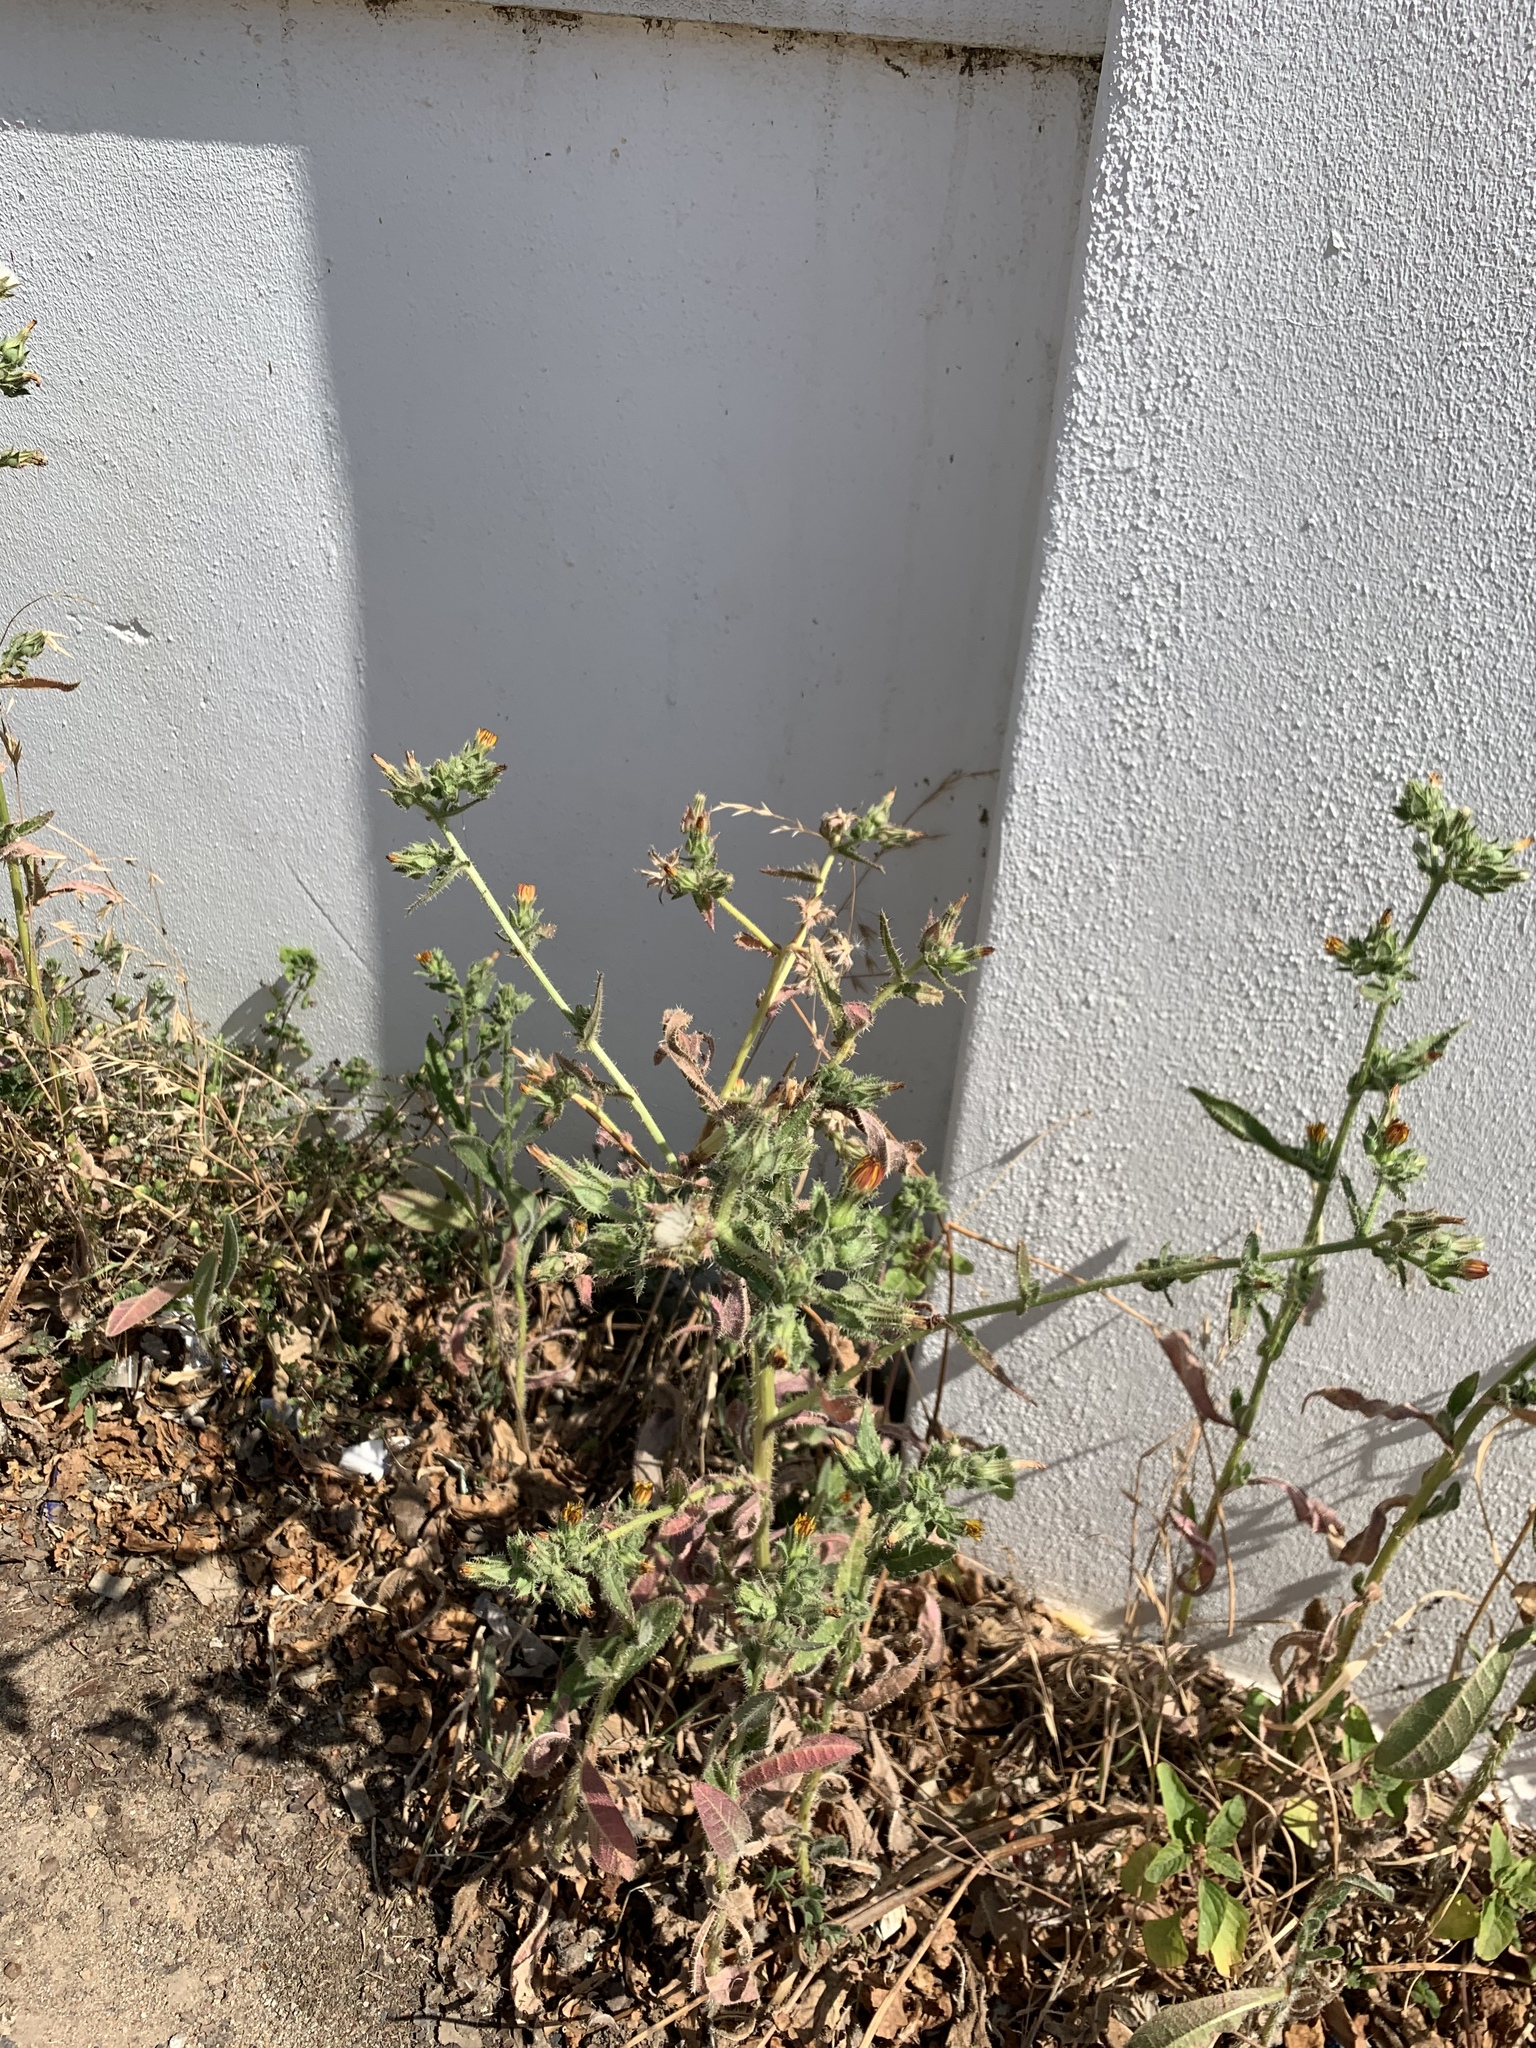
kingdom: Plantae
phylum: Tracheophyta
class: Magnoliopsida
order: Asterales
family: Asteraceae
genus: Helminthotheca
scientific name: Helminthotheca echioides
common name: Ox-tongue
